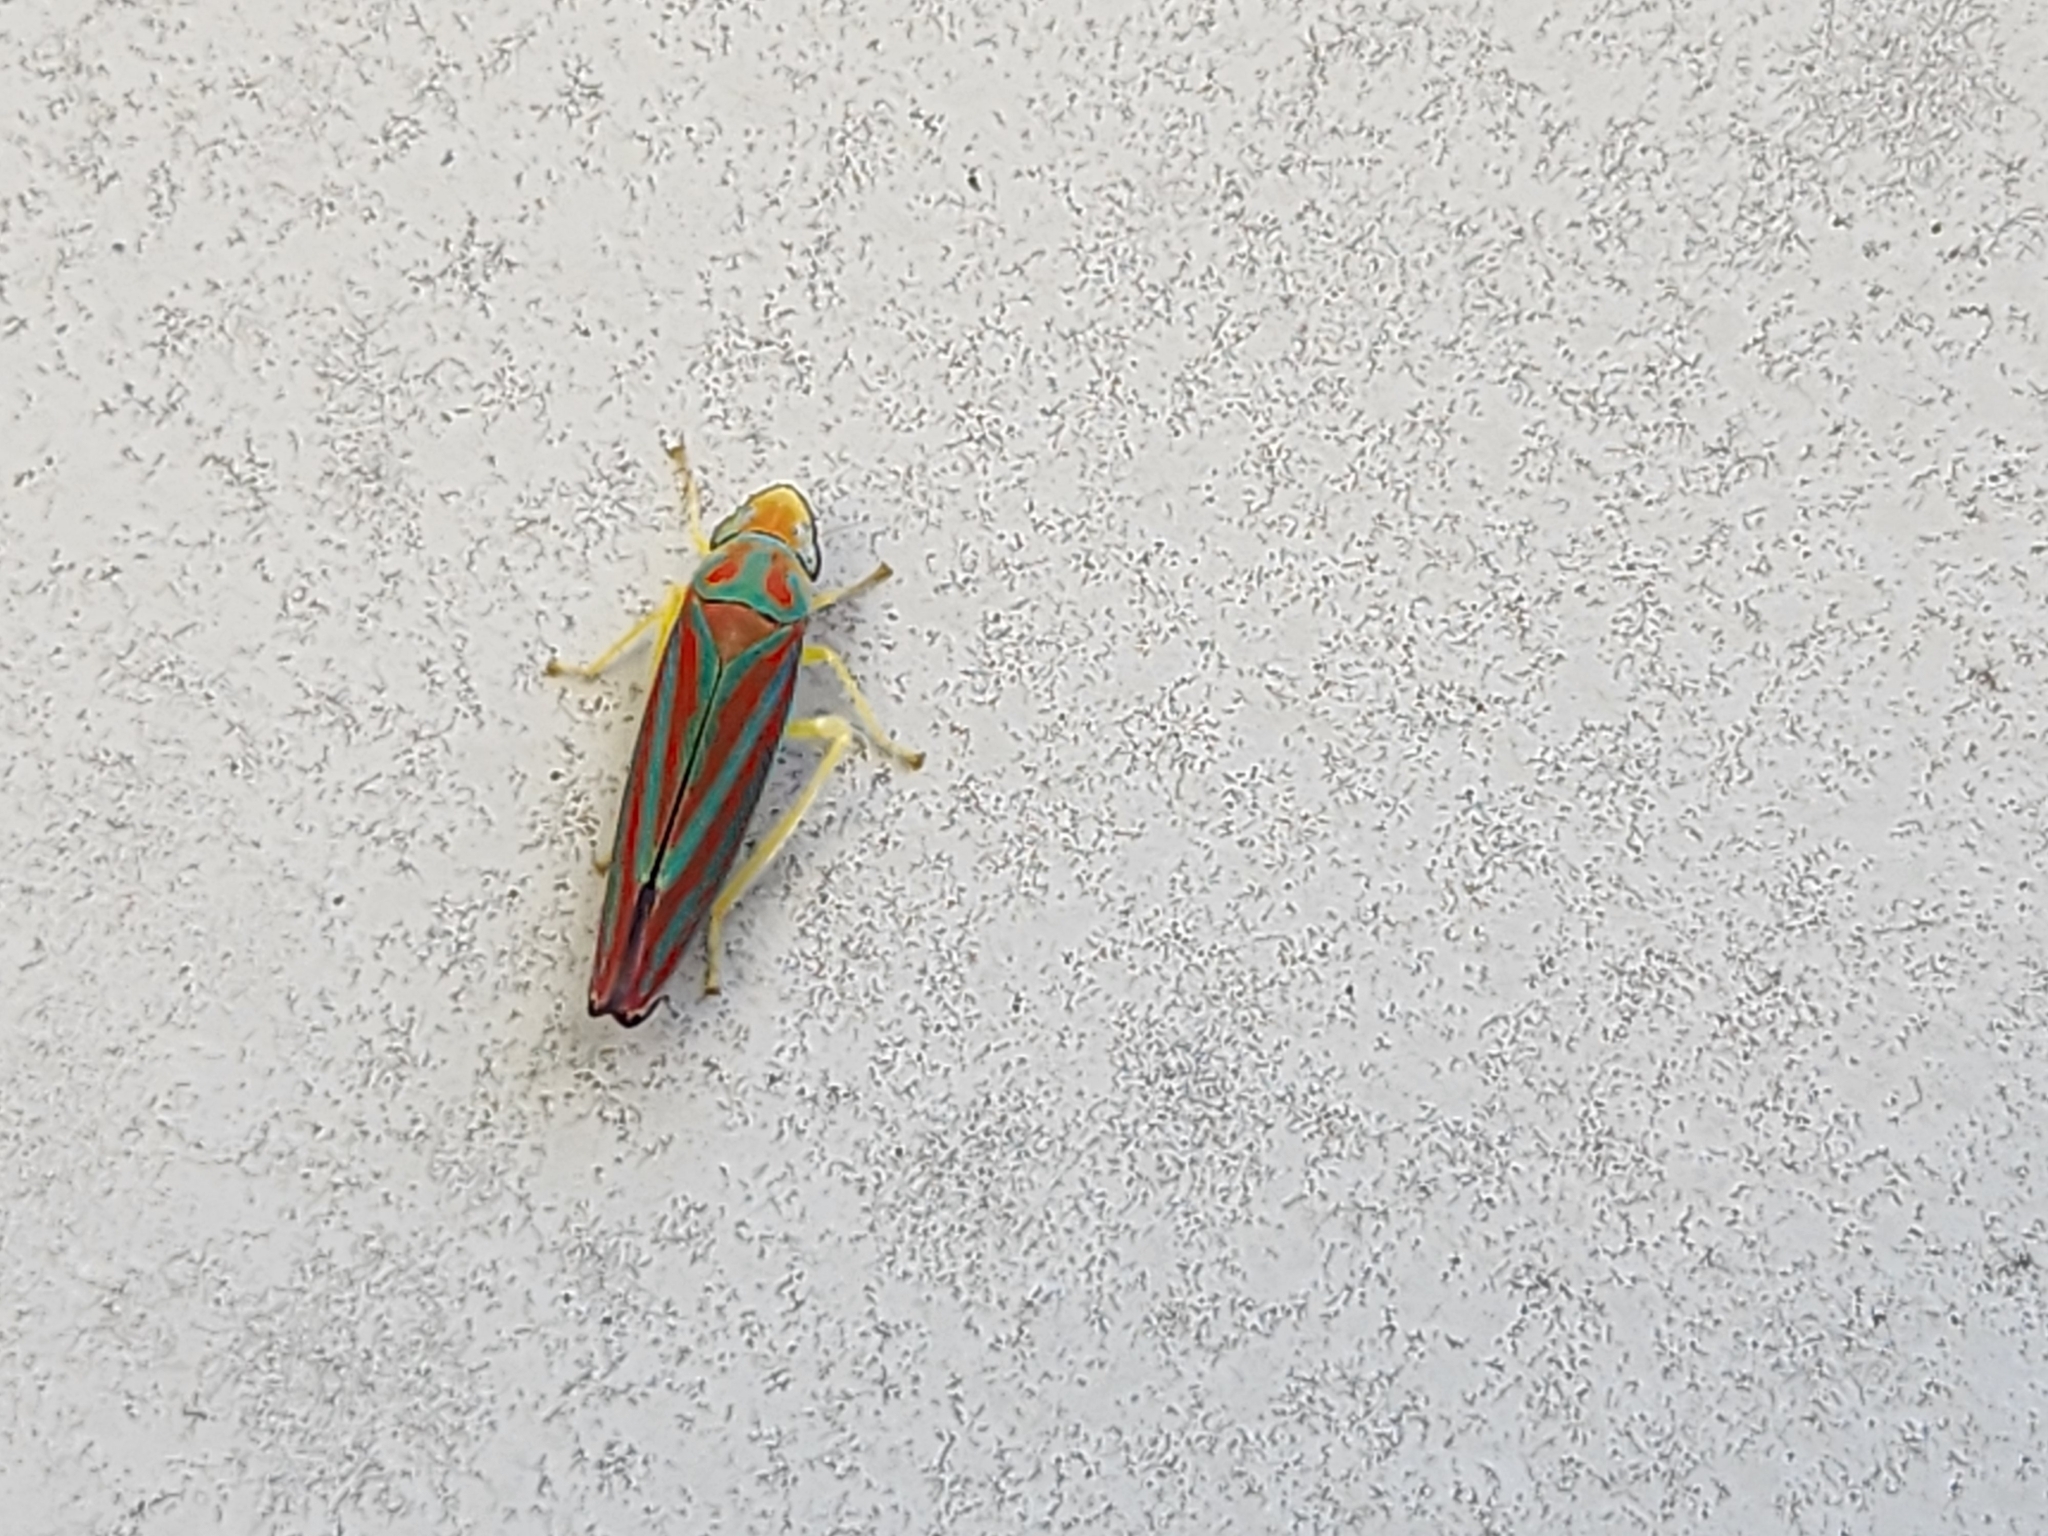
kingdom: Animalia
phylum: Arthropoda
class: Insecta
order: Hemiptera
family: Cicadellidae
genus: Graphocephala
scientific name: Graphocephala coccinea
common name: Candy-striped leafhopper
